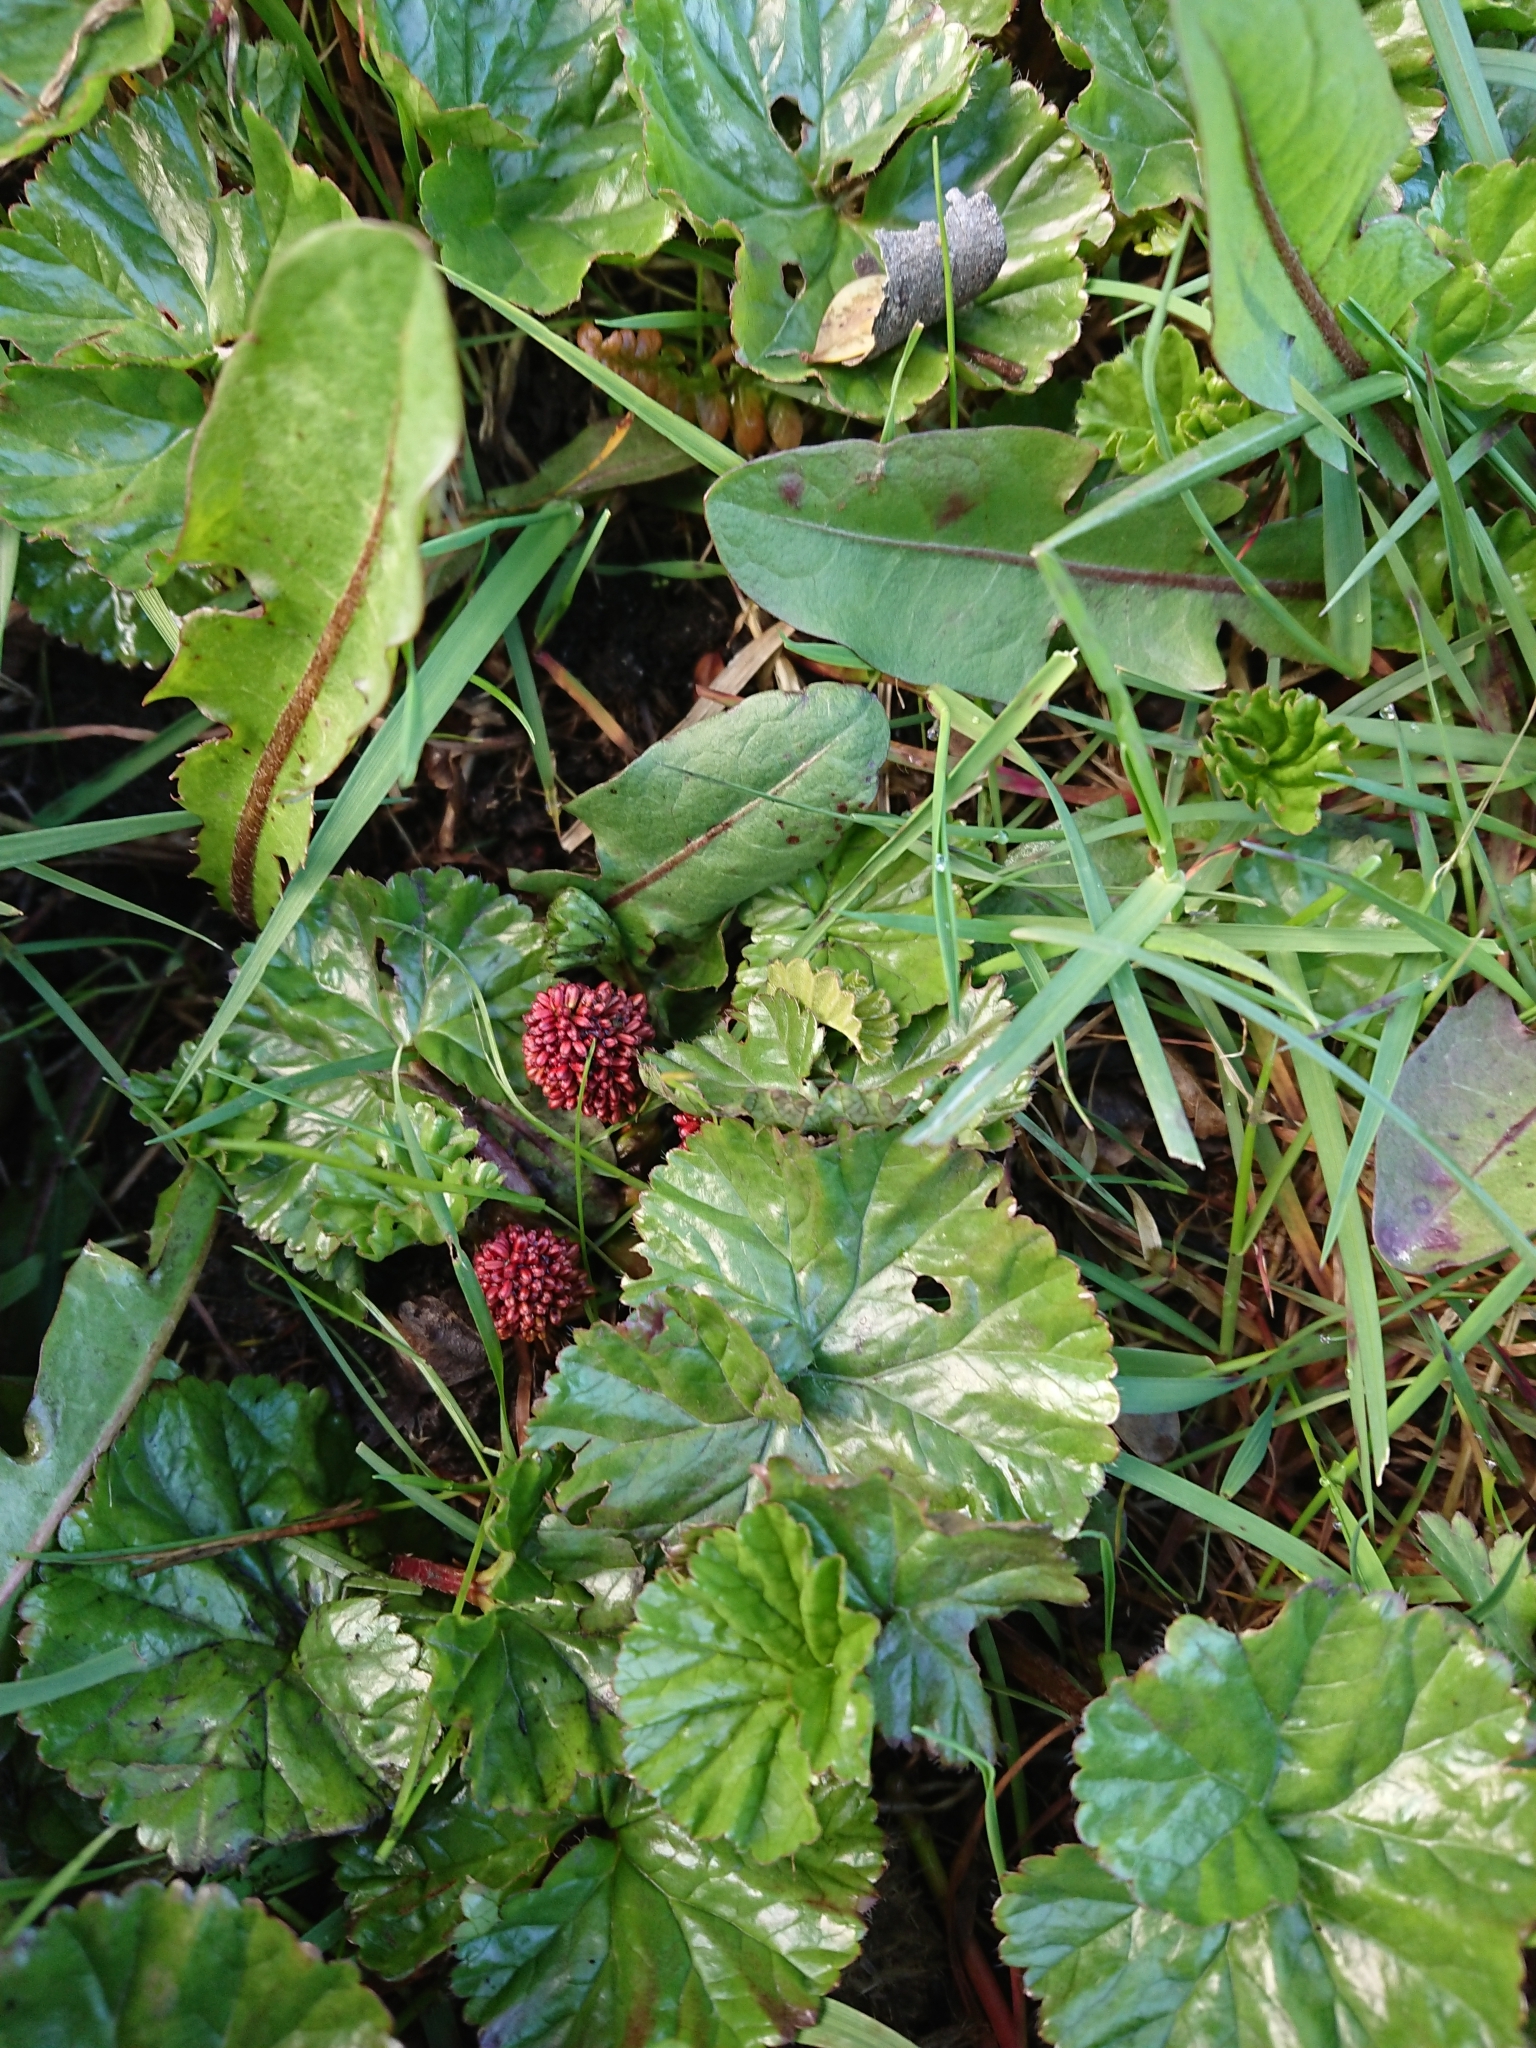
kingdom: Plantae
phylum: Tracheophyta
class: Magnoliopsida
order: Gunnerales
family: Gunneraceae
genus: Gunnera
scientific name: Gunnera magellanica
